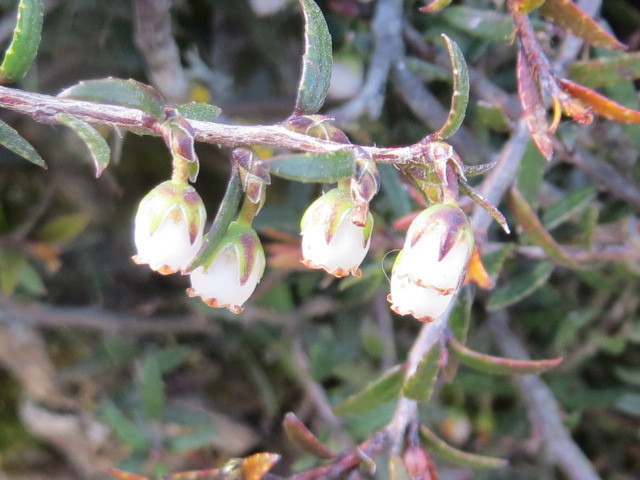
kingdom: Plantae
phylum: Tracheophyta
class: Magnoliopsida
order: Ericales
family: Ericaceae
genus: Gaultheria
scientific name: Gaultheria macrostigma
